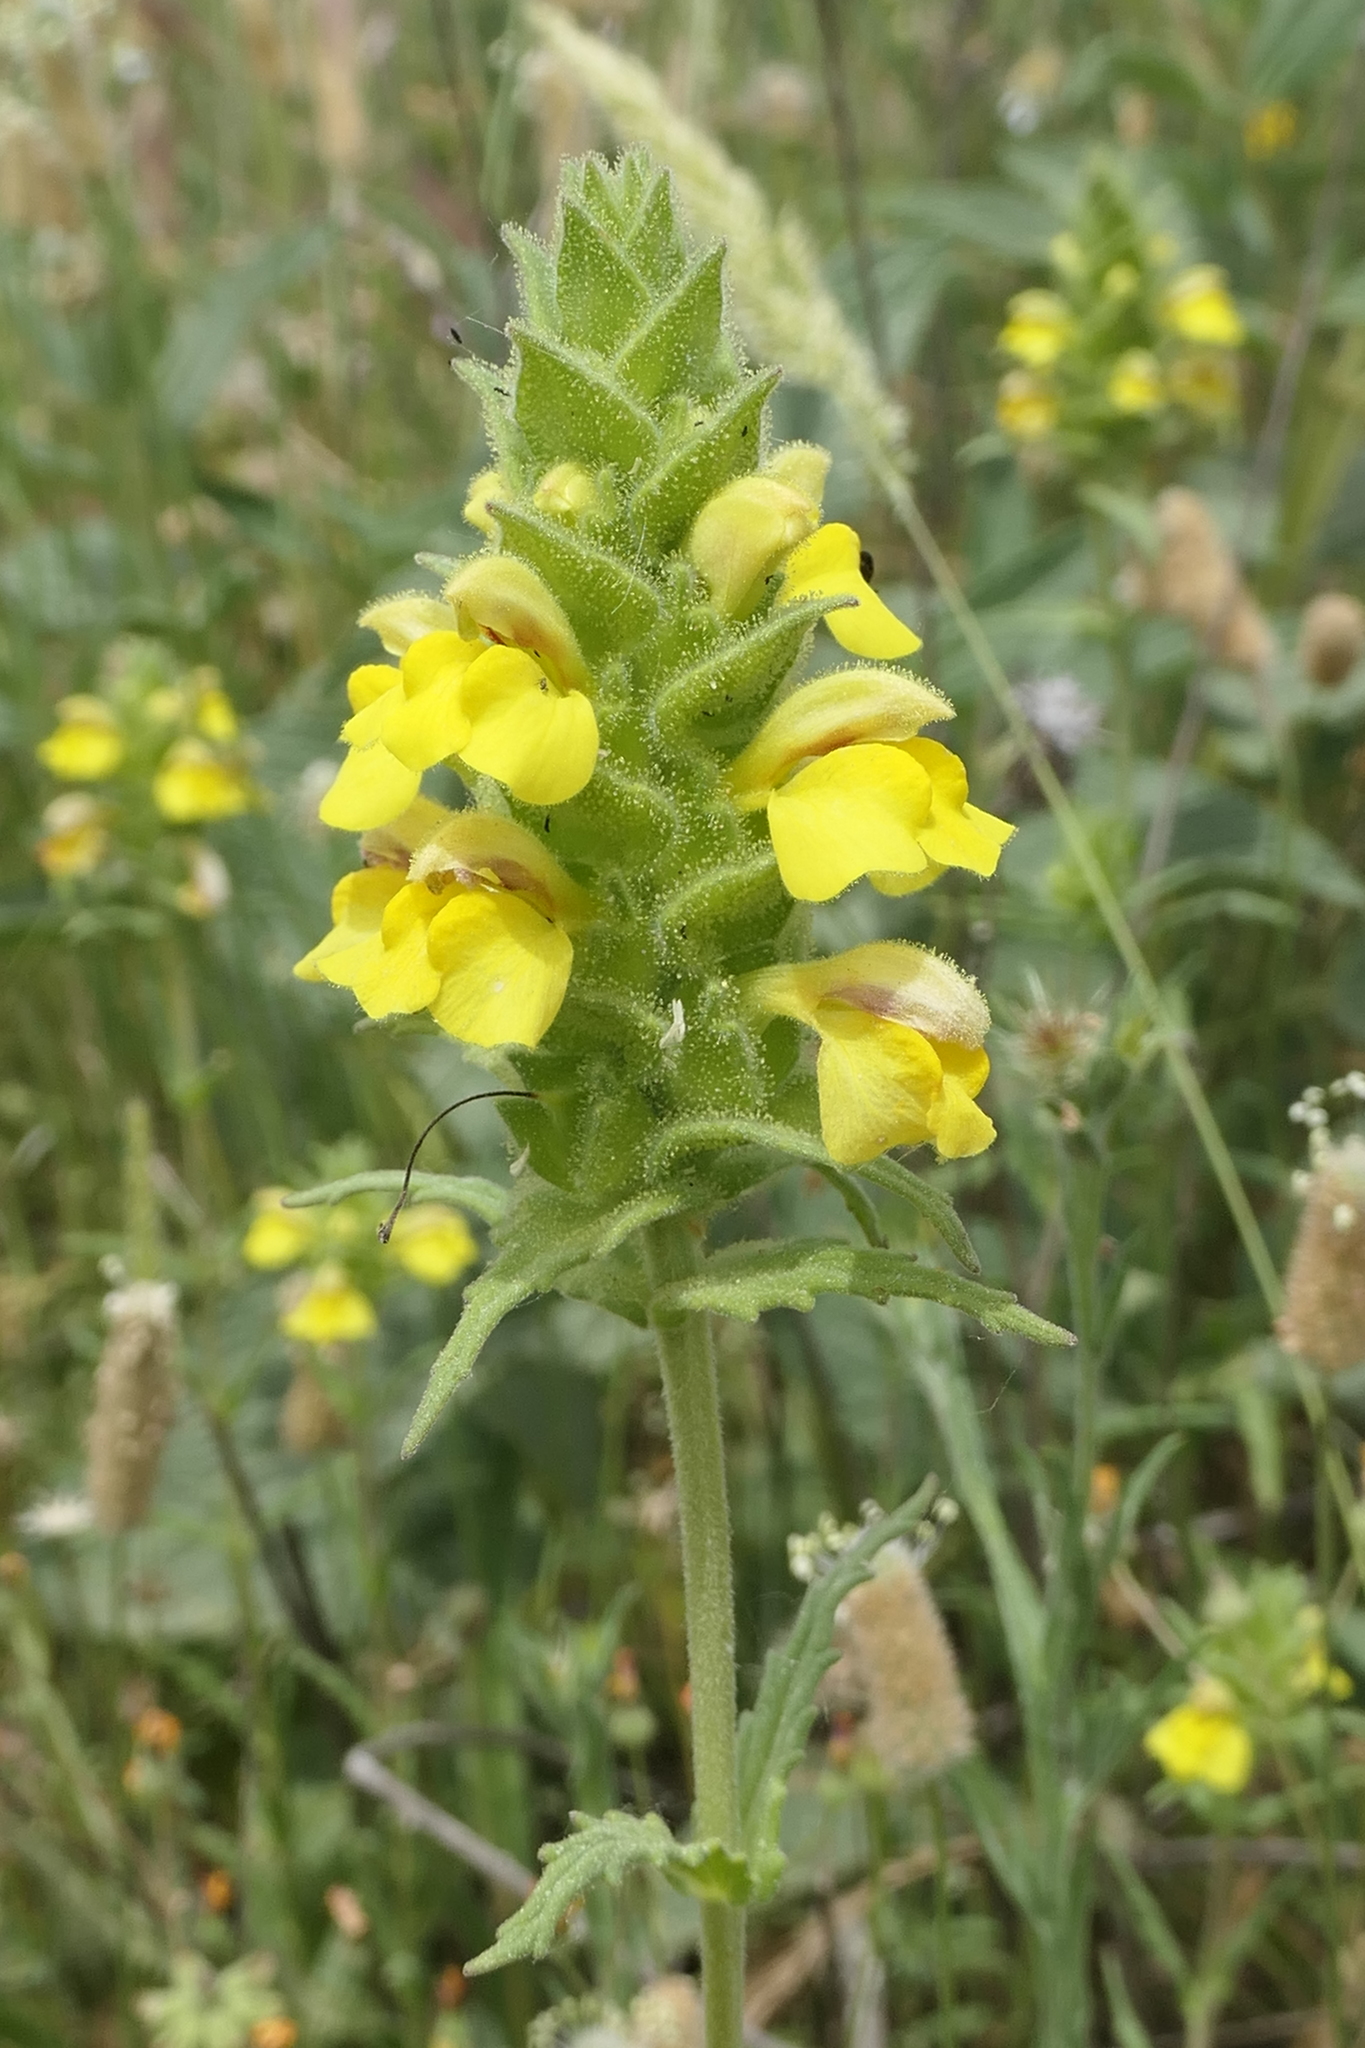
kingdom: Plantae
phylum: Tracheophyta
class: Magnoliopsida
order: Lamiales
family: Orobanchaceae
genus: Bellardia
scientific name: Bellardia trixago
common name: Mediterranean lineseed
